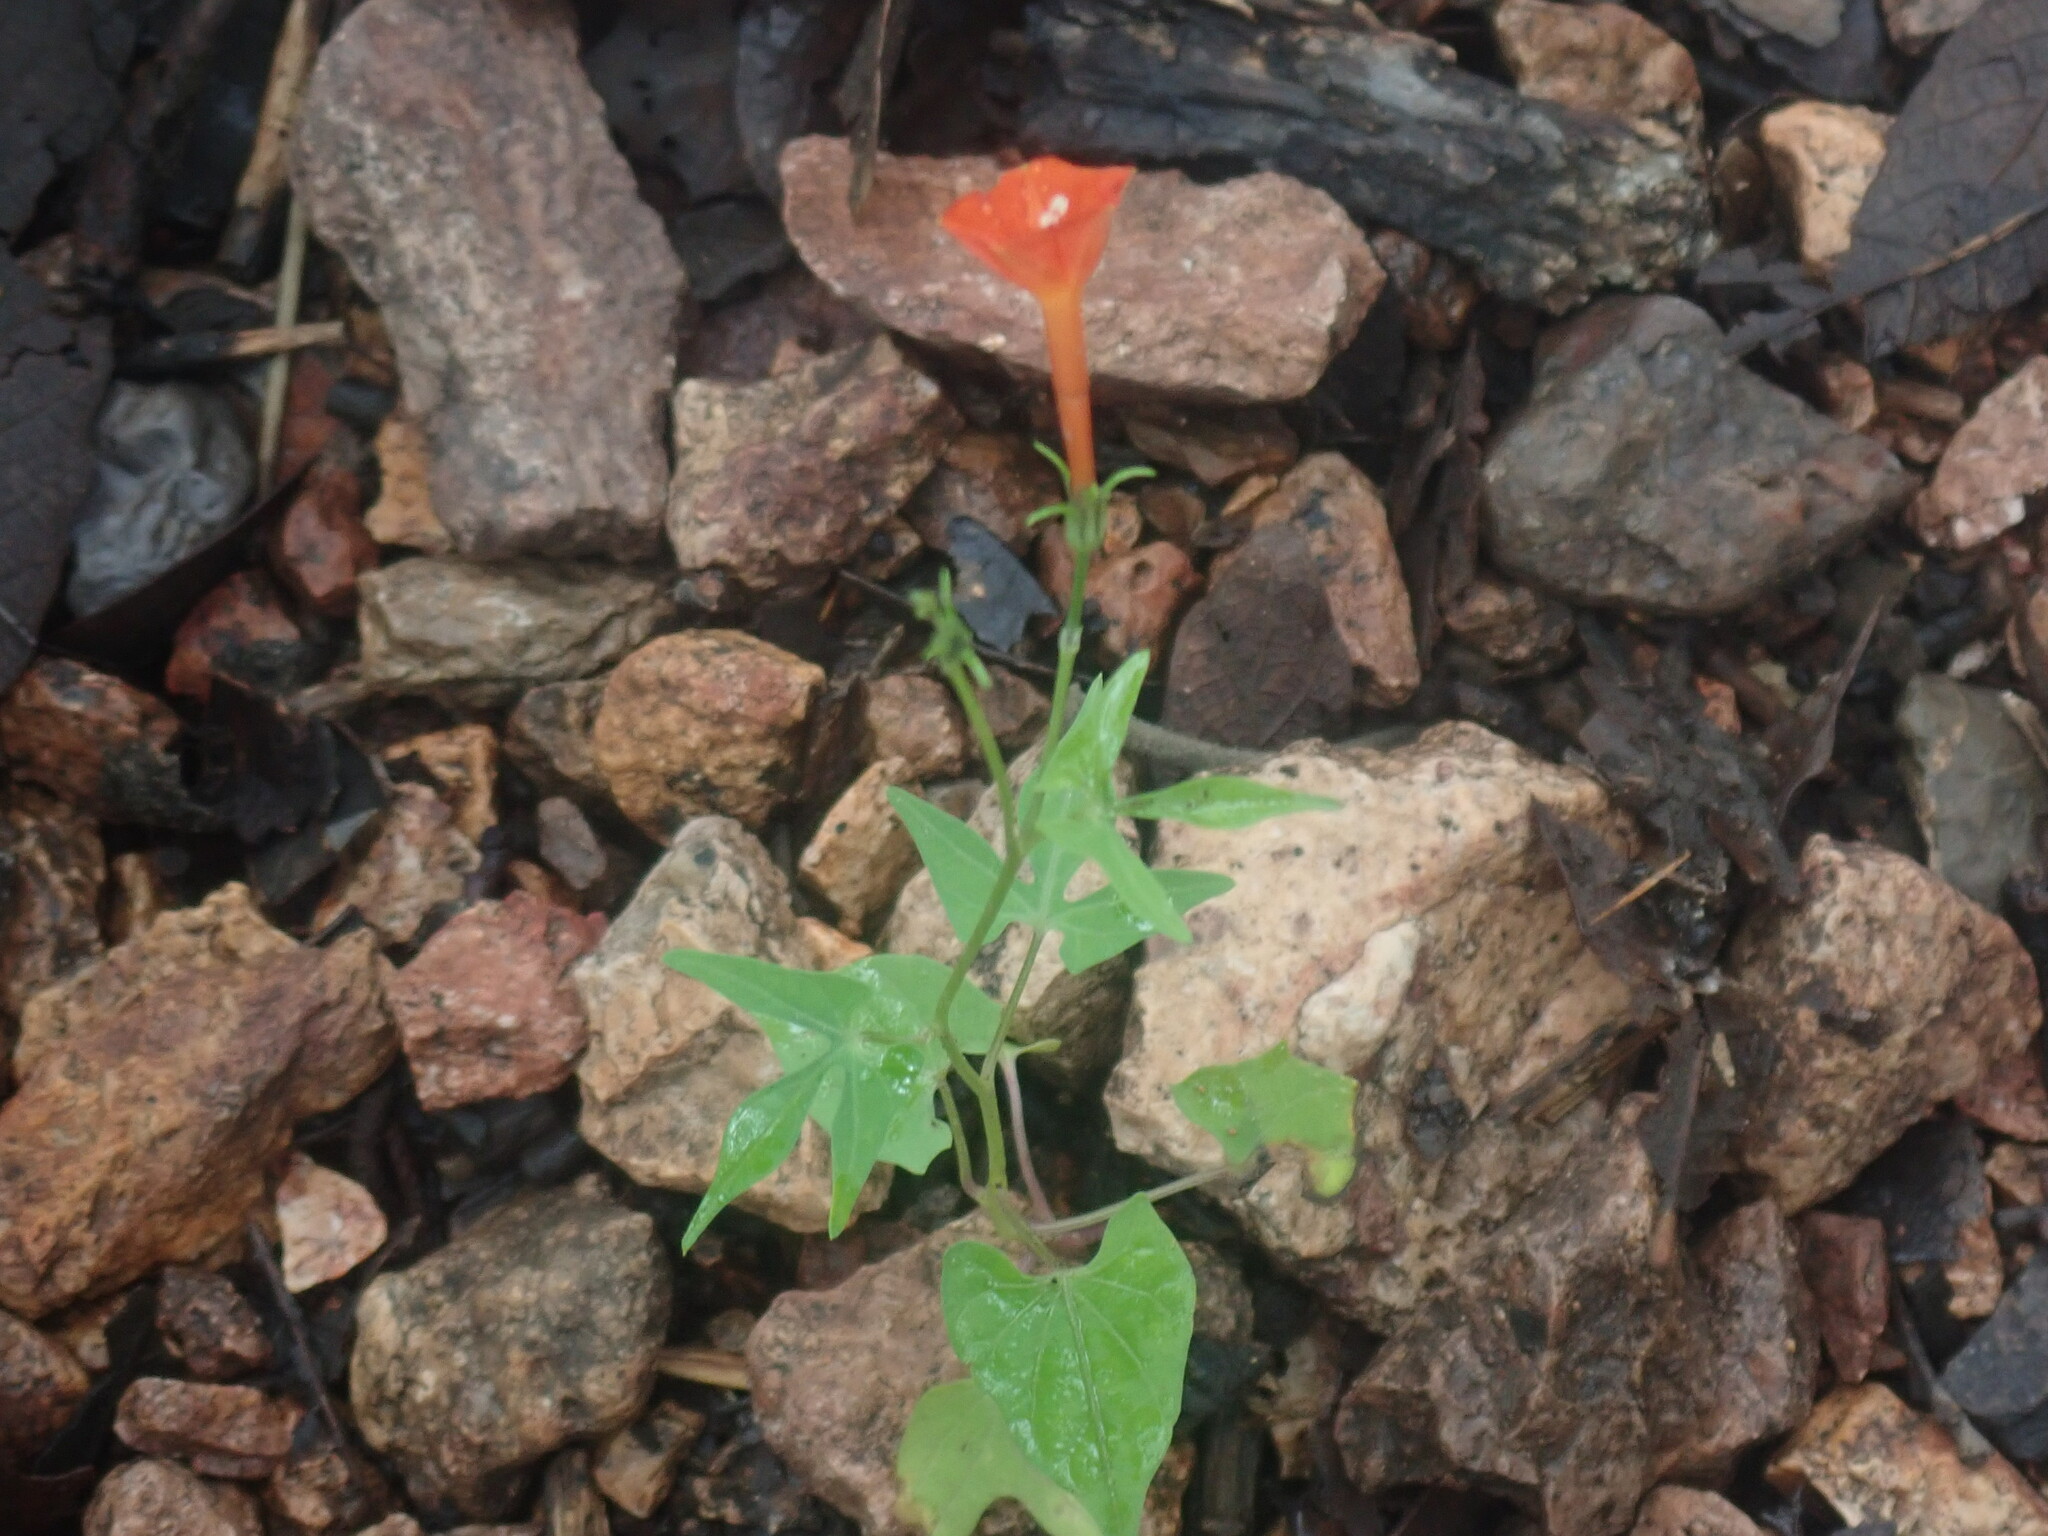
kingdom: Plantae
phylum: Tracheophyta
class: Magnoliopsida
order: Solanales
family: Convolvulaceae
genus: Ipomoea
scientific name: Ipomoea cristulata
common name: Trans-pecos morning-glory
